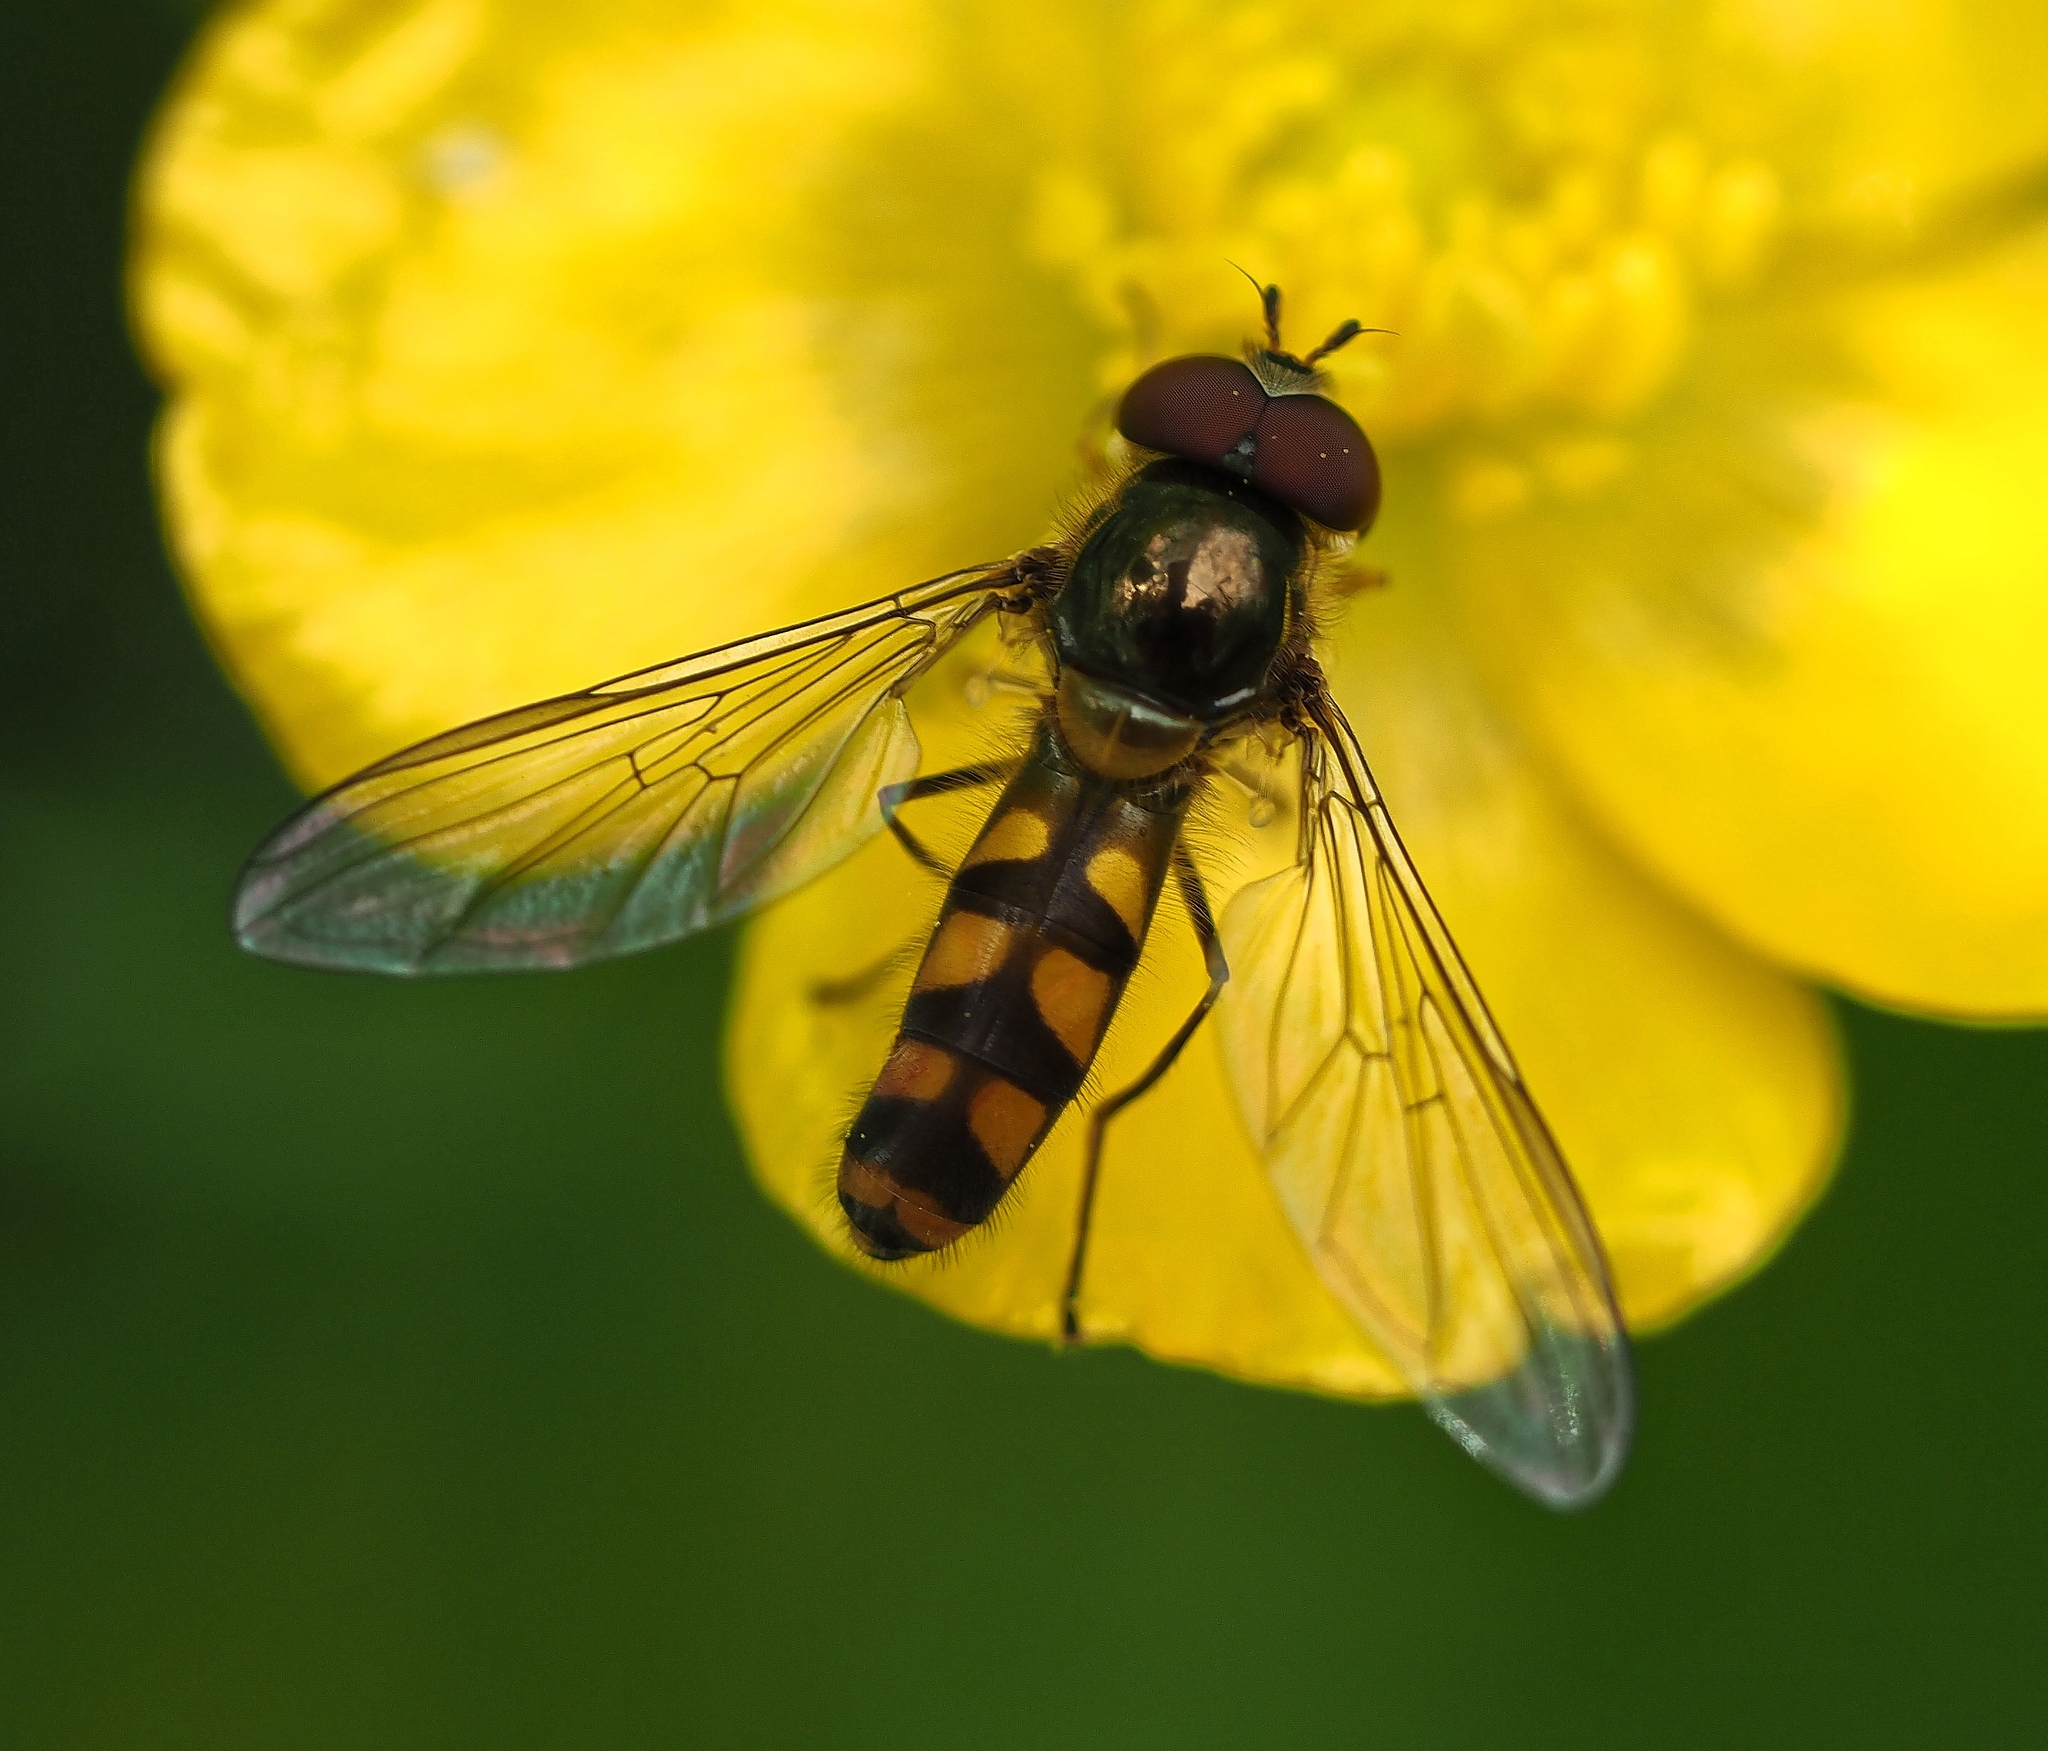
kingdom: Animalia
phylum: Arthropoda
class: Insecta
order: Diptera
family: Syrphidae
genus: Meliscaeva
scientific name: Meliscaeva auricollis
